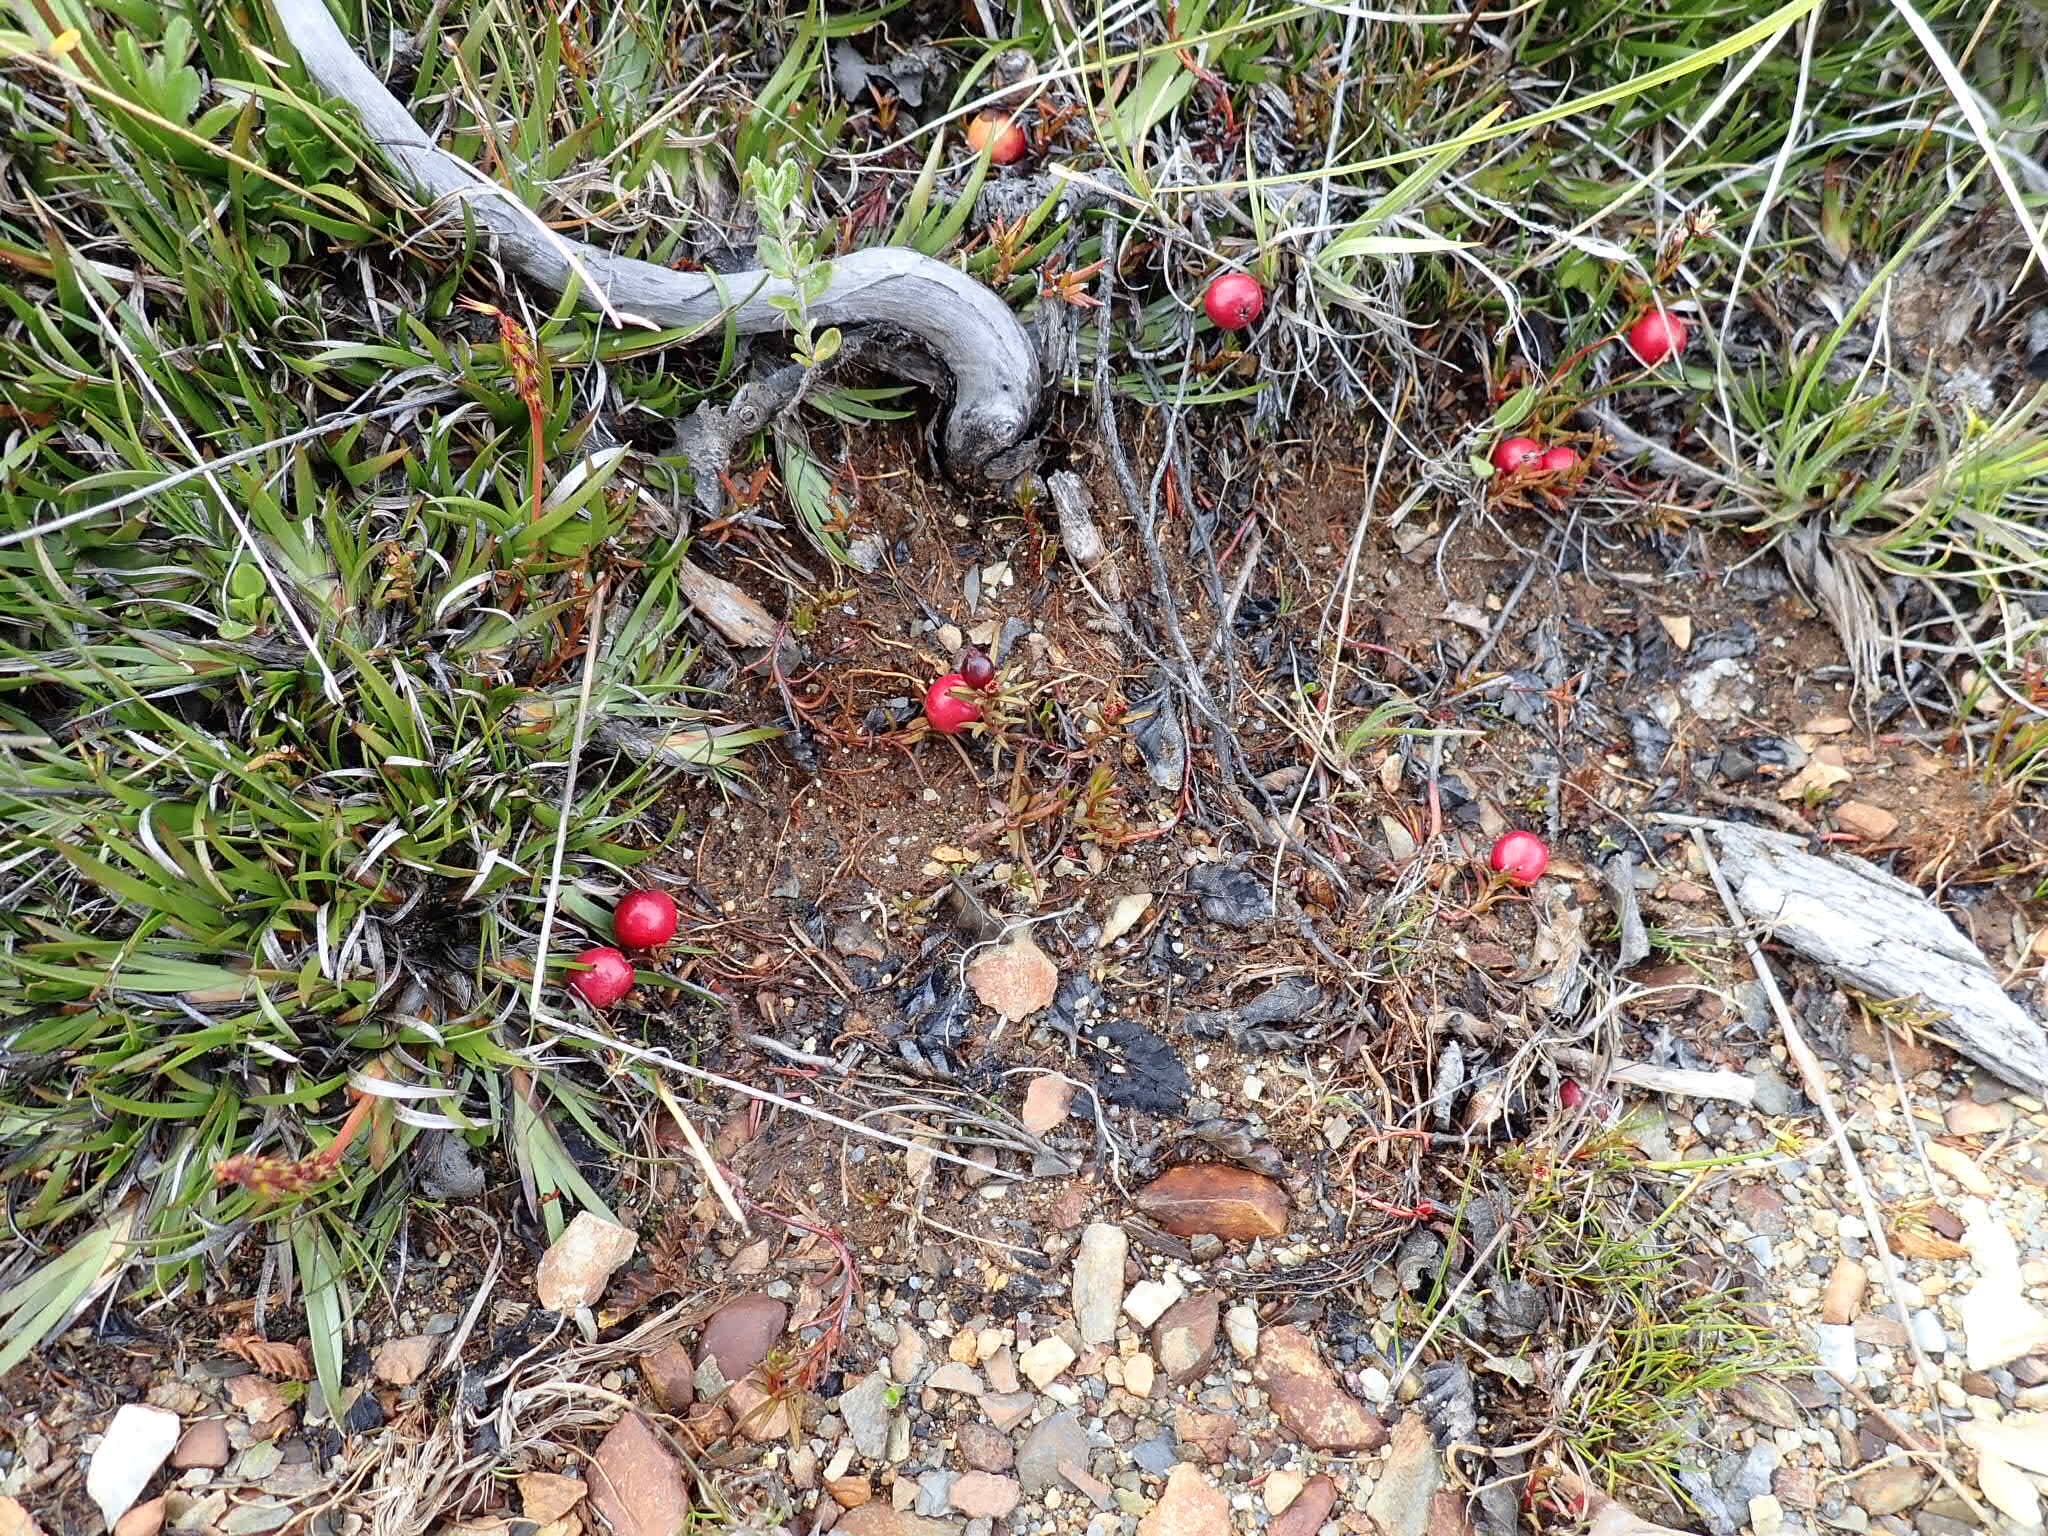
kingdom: Plantae
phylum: Tracheophyta
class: Magnoliopsida
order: Santalales
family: Nanodeaceae
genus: Nanodea
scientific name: Nanodea muscosa
